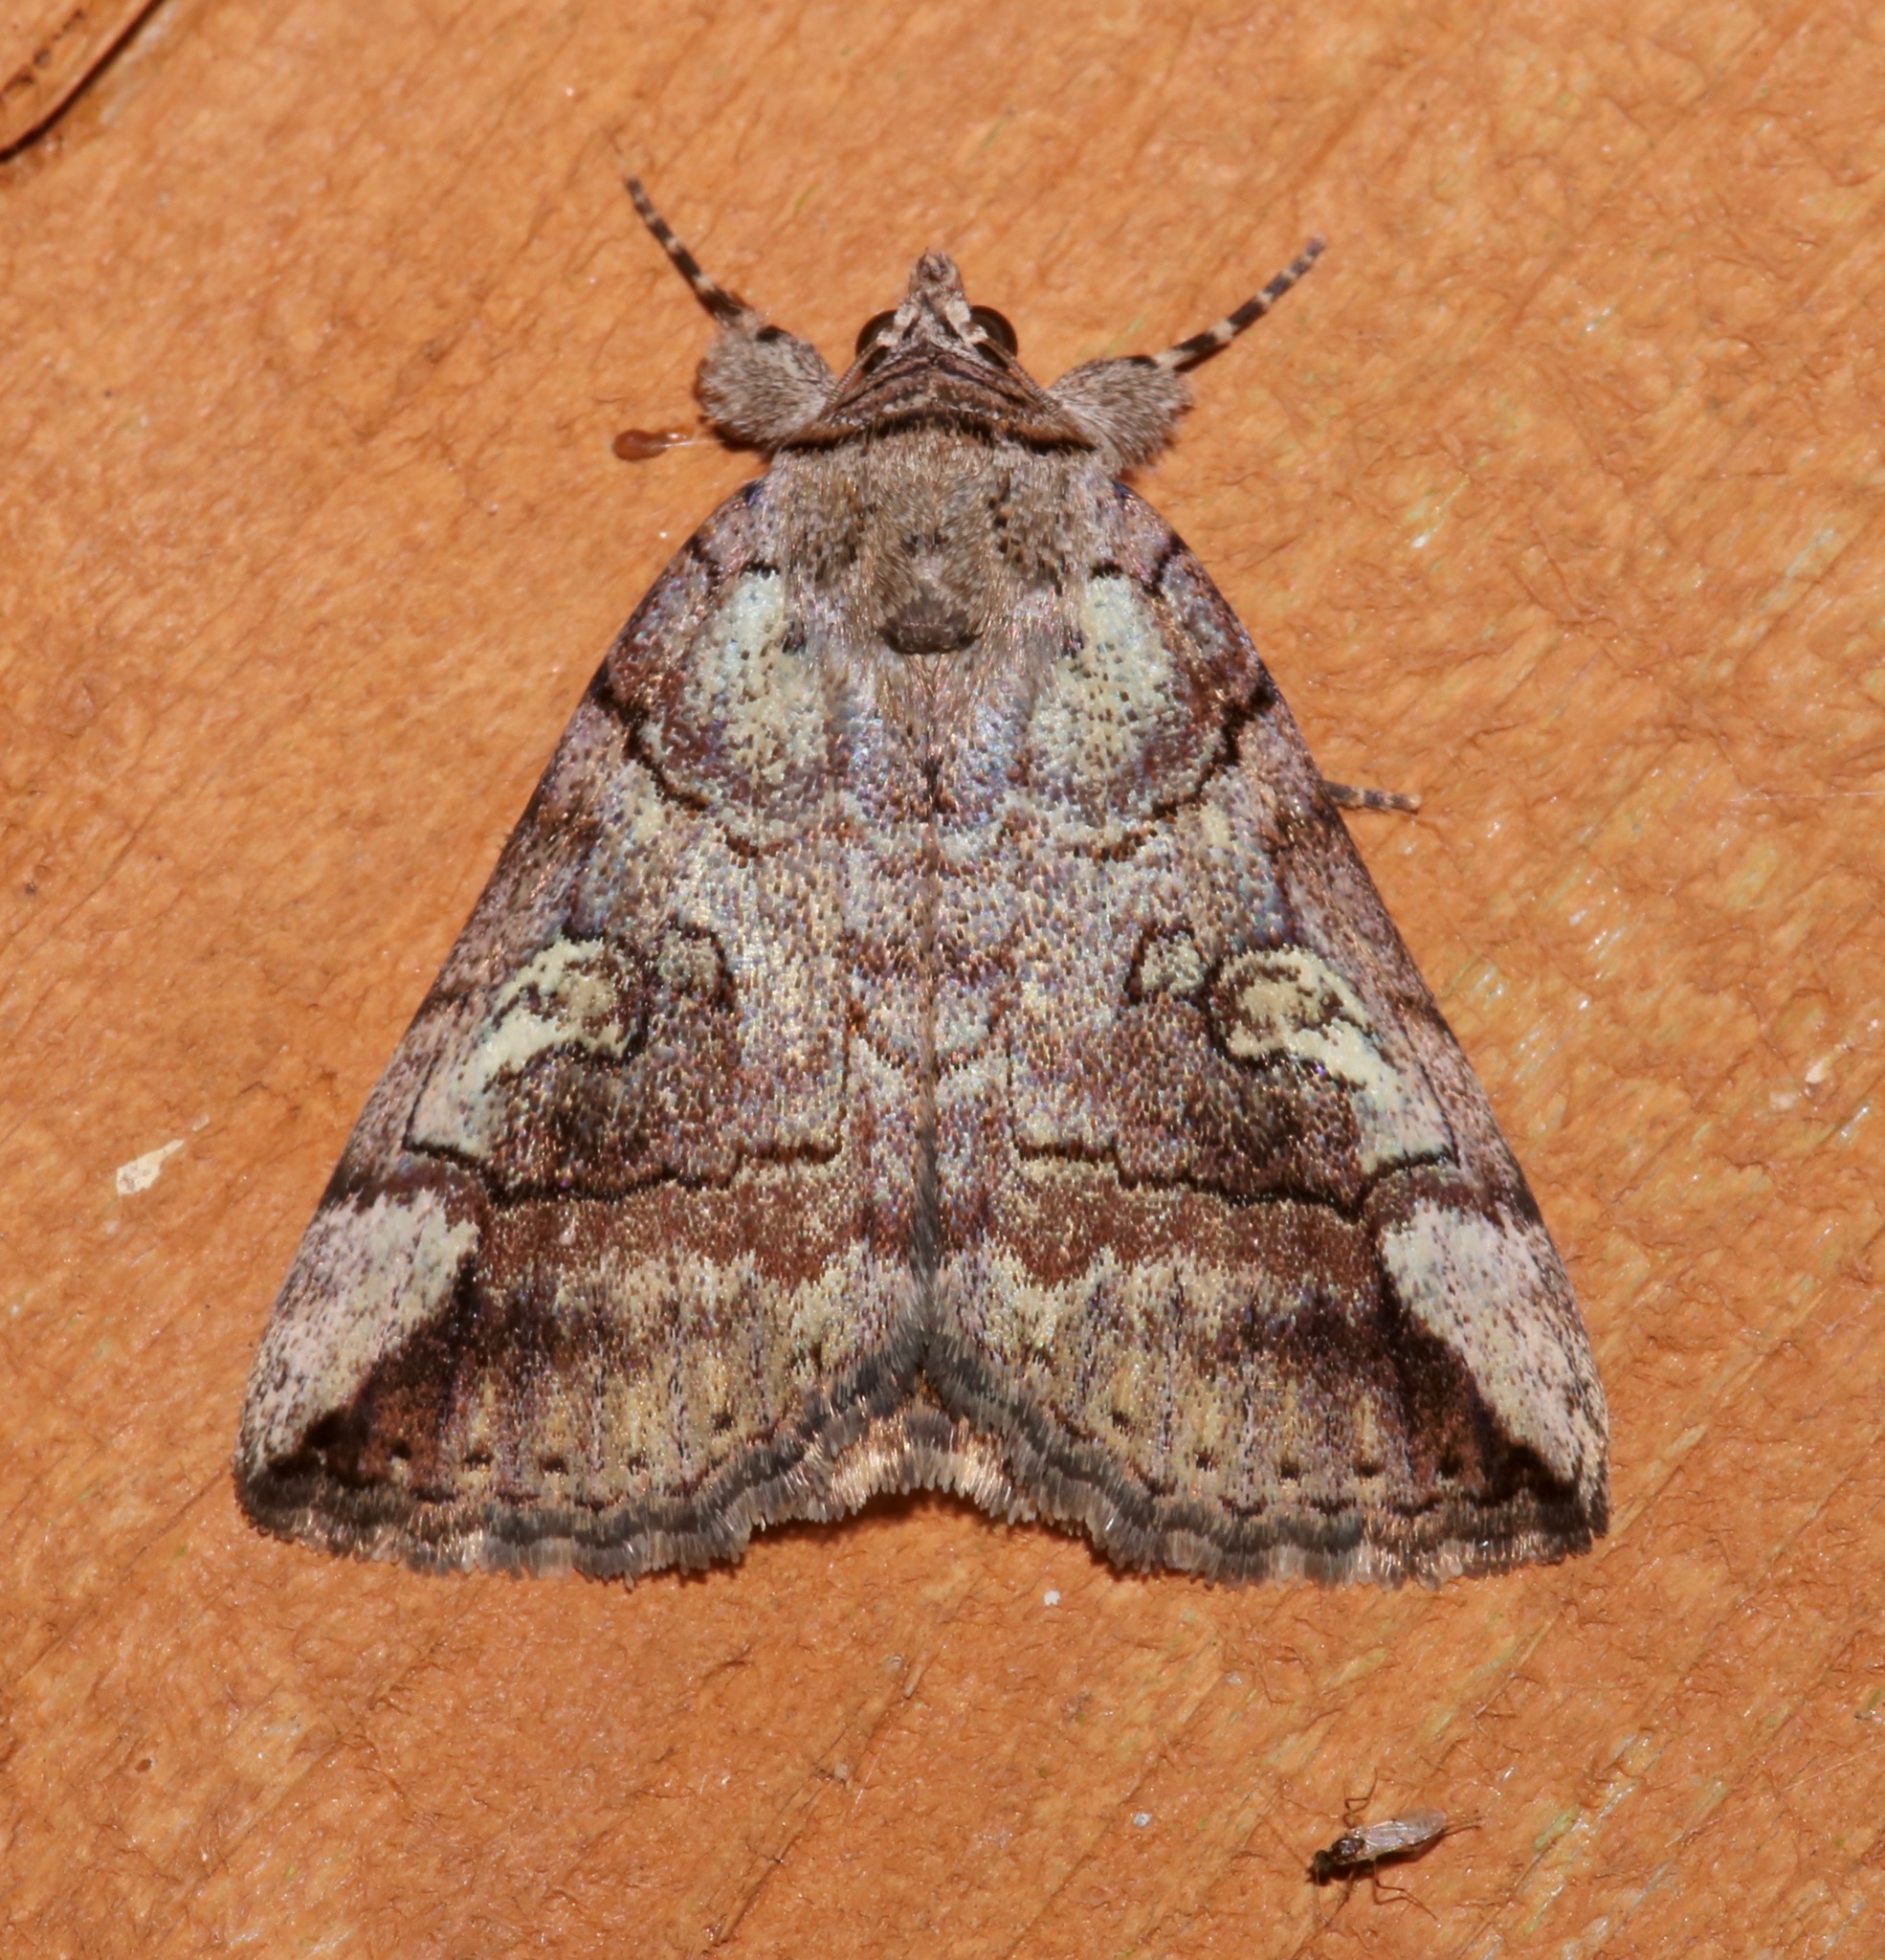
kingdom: Animalia
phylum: Arthropoda
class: Insecta
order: Lepidoptera
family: Erebidae
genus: Catocala
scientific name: Catocala similis
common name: Similar underwing
